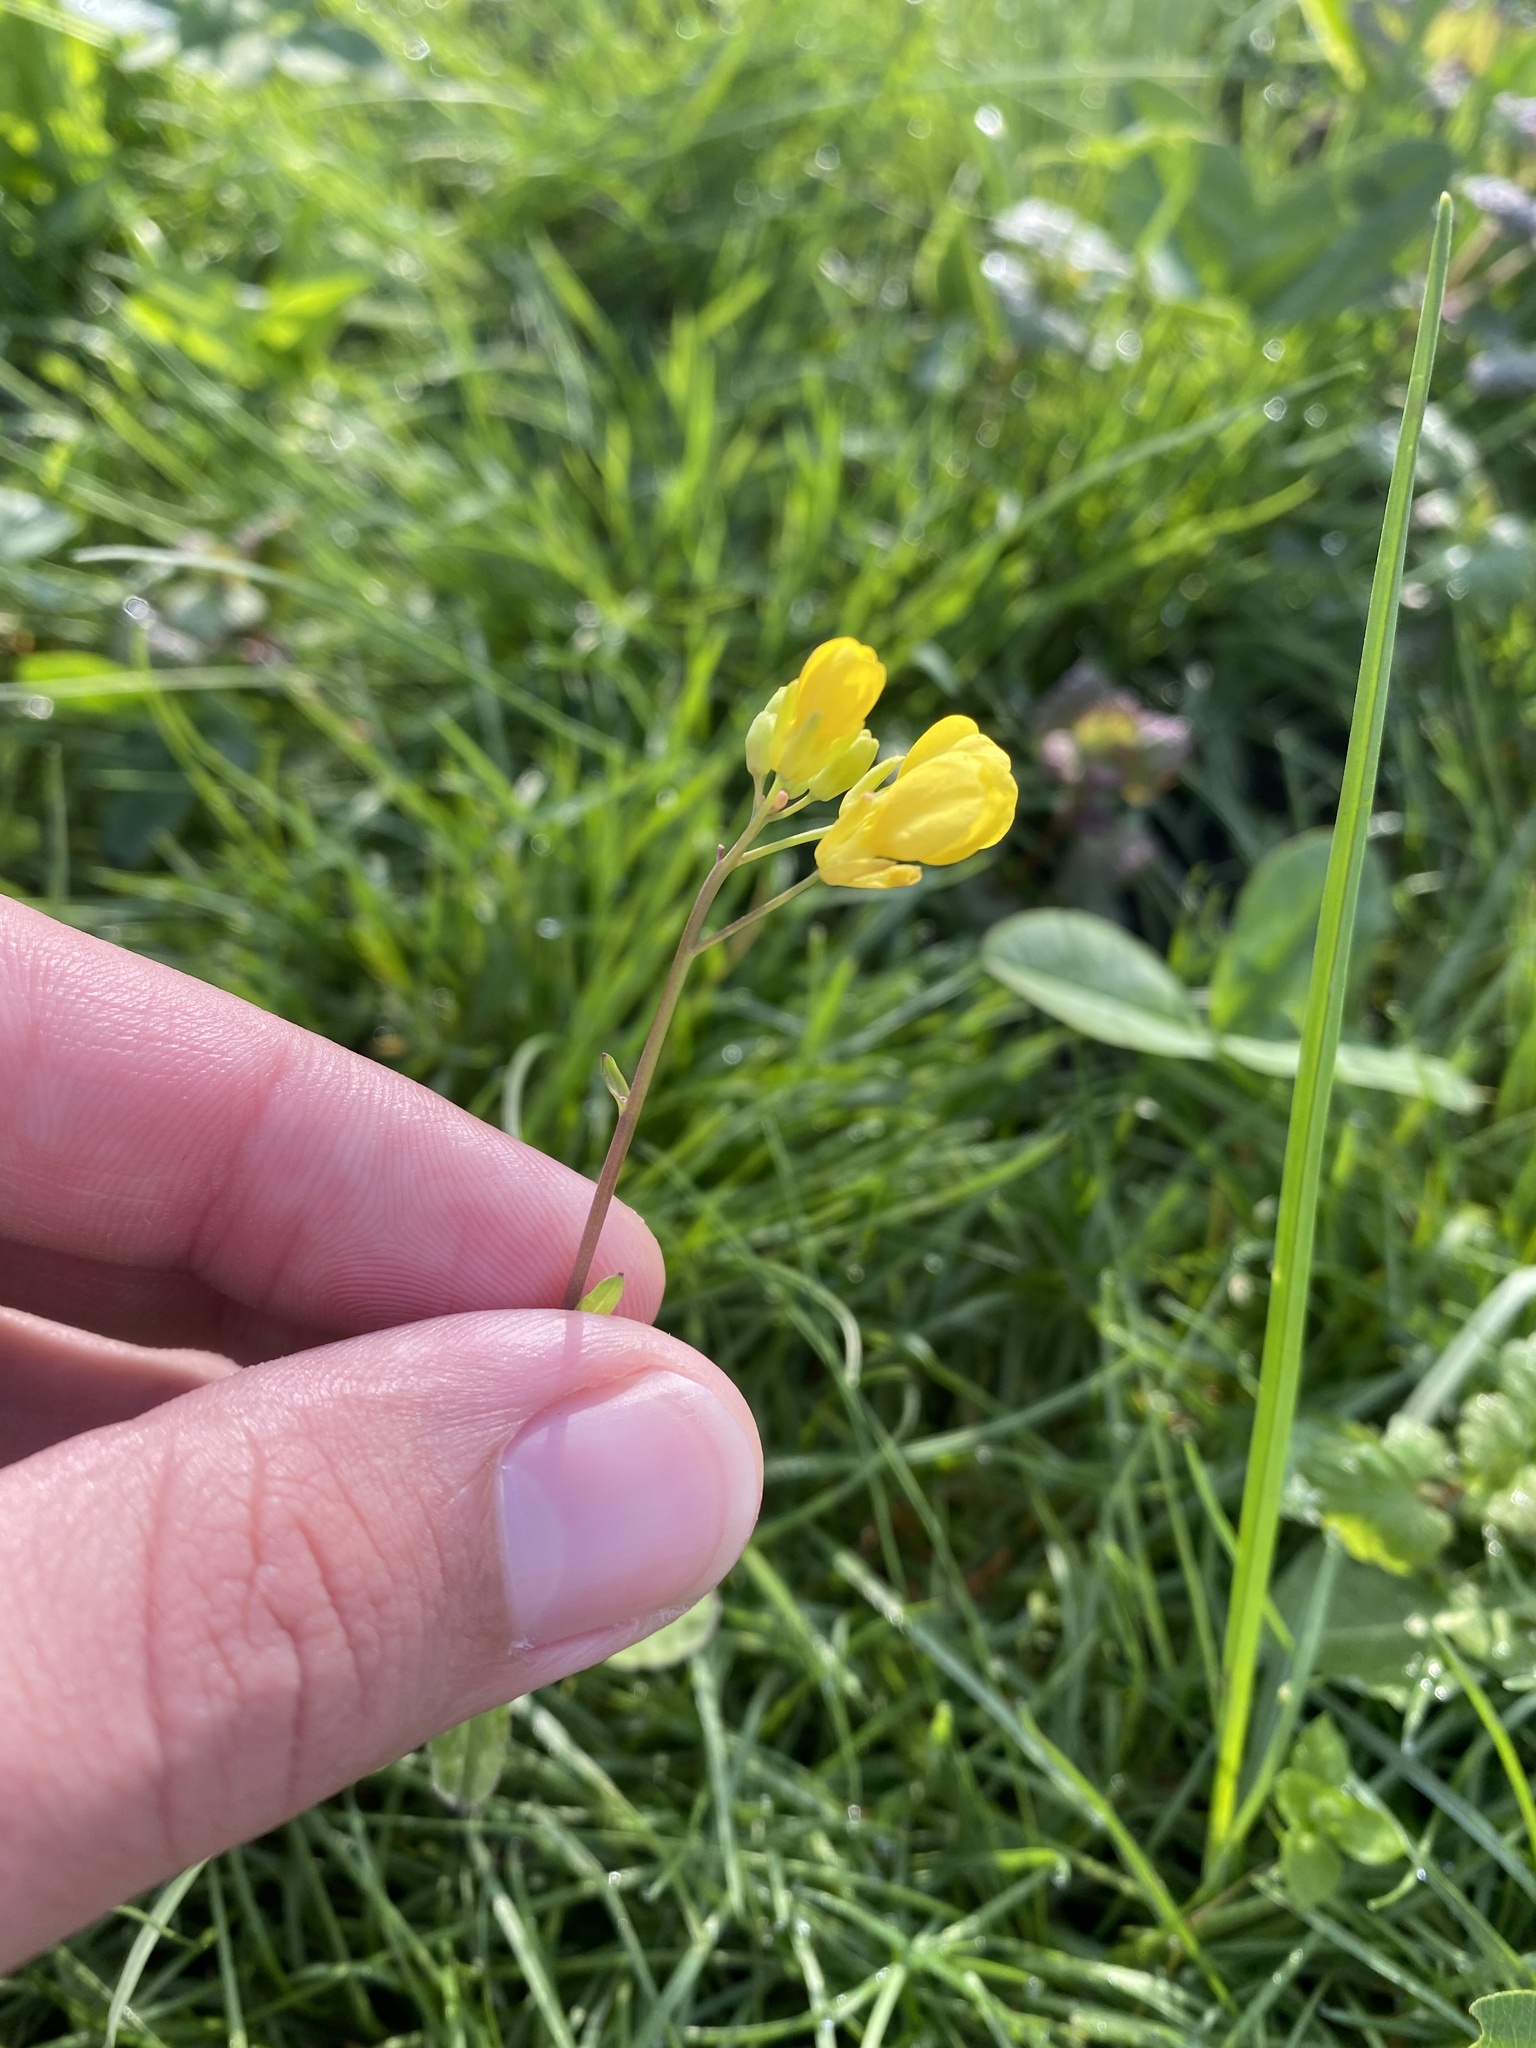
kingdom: Plantae
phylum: Tracheophyta
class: Magnoliopsida
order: Brassicales
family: Brassicaceae
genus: Brassica
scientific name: Brassica rapa
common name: Field mustard
